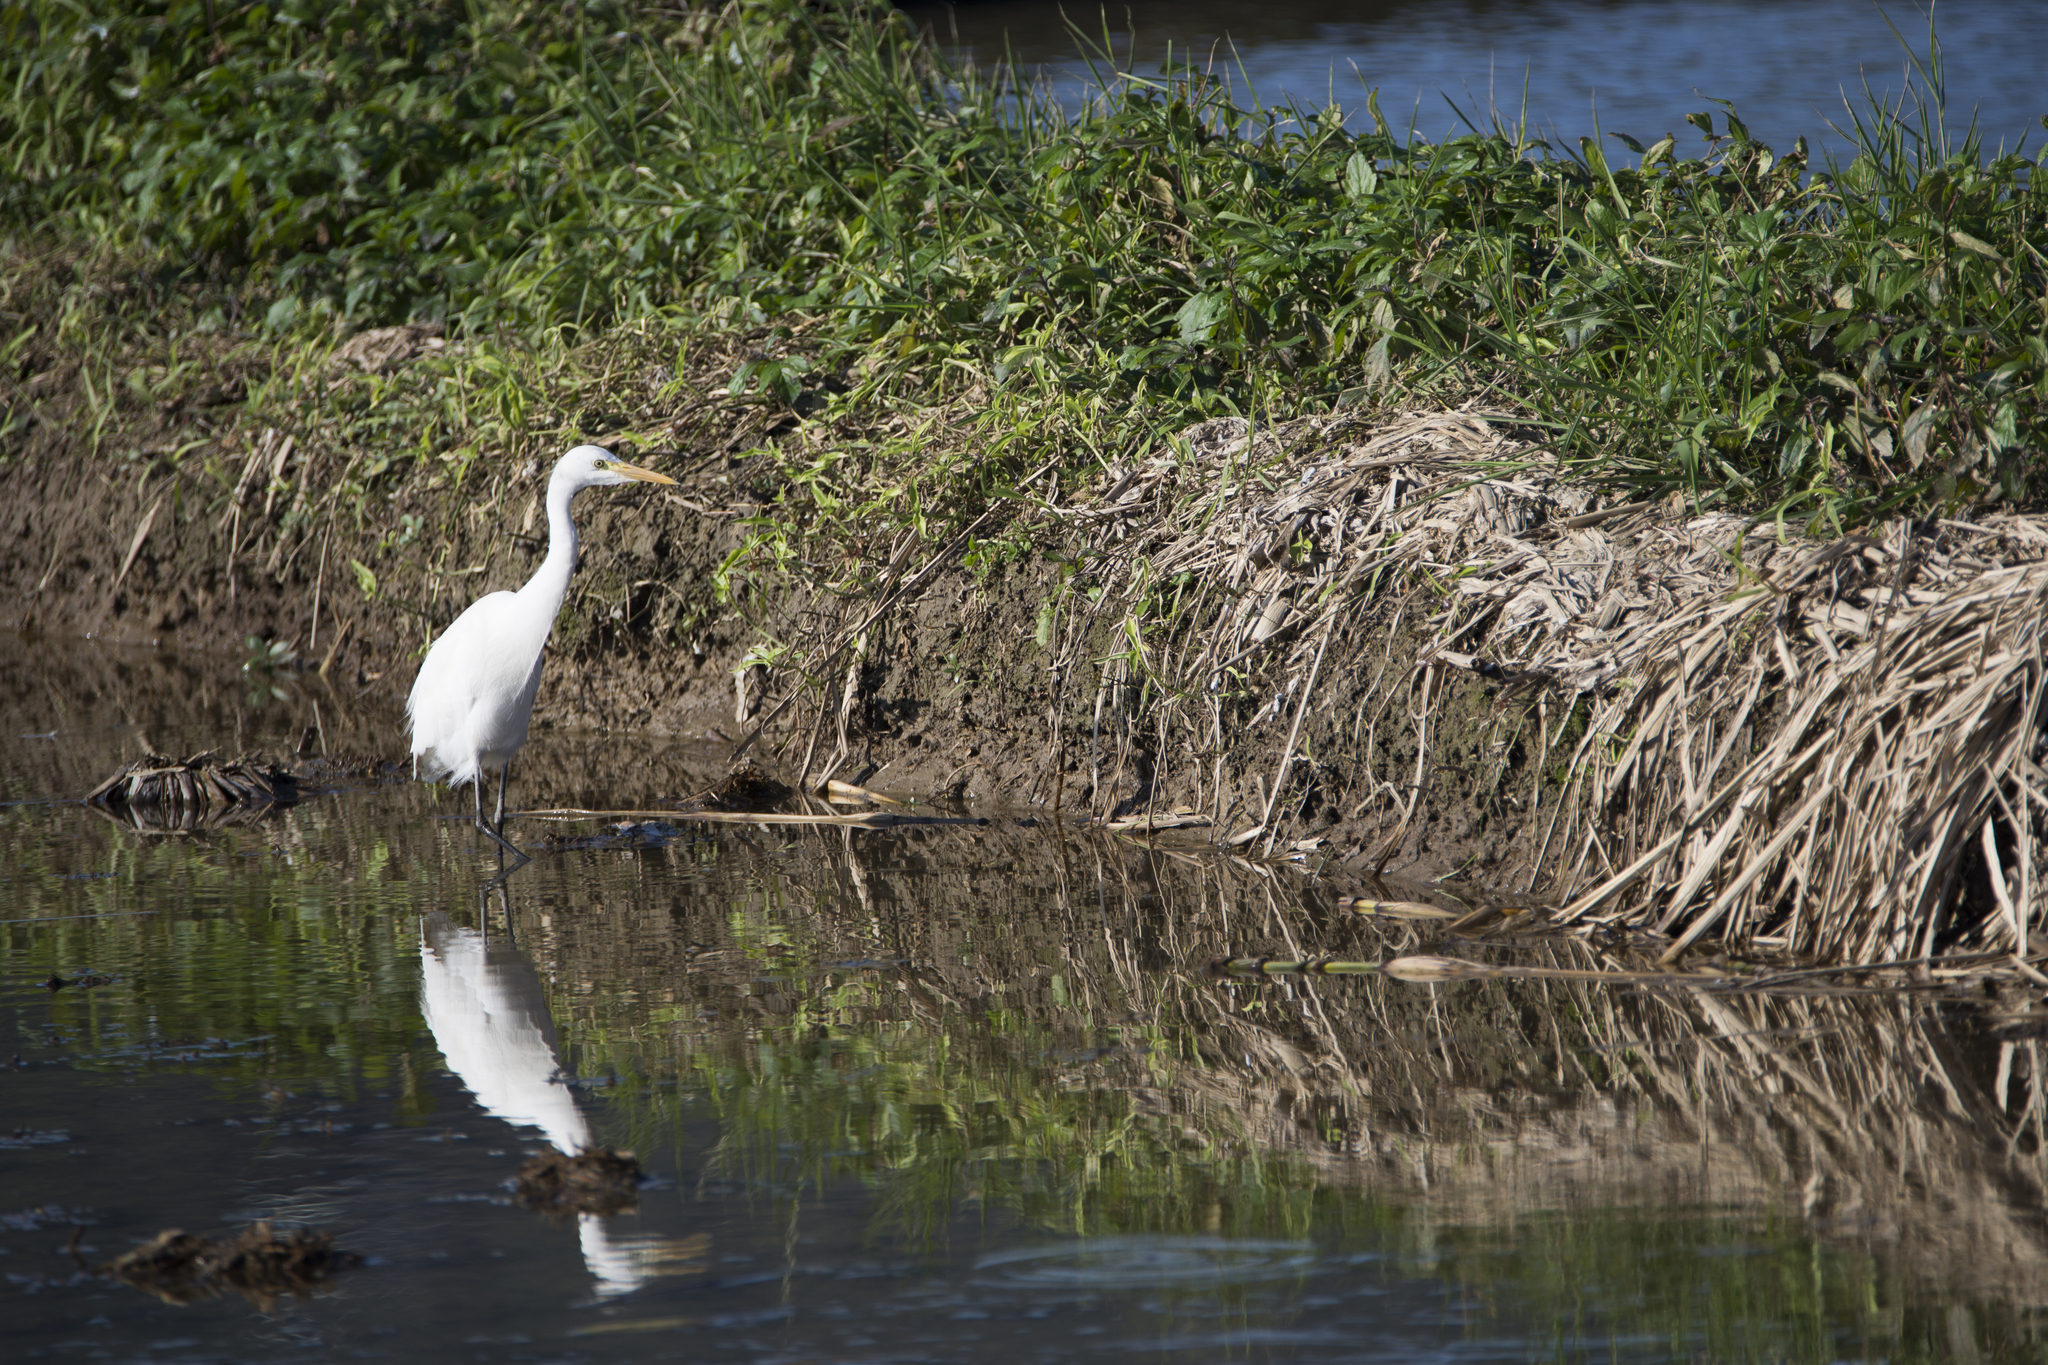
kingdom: Animalia
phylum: Chordata
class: Aves
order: Pelecaniformes
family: Ardeidae
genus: Bubulcus
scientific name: Bubulcus coromandus
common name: Eastern cattle egret
